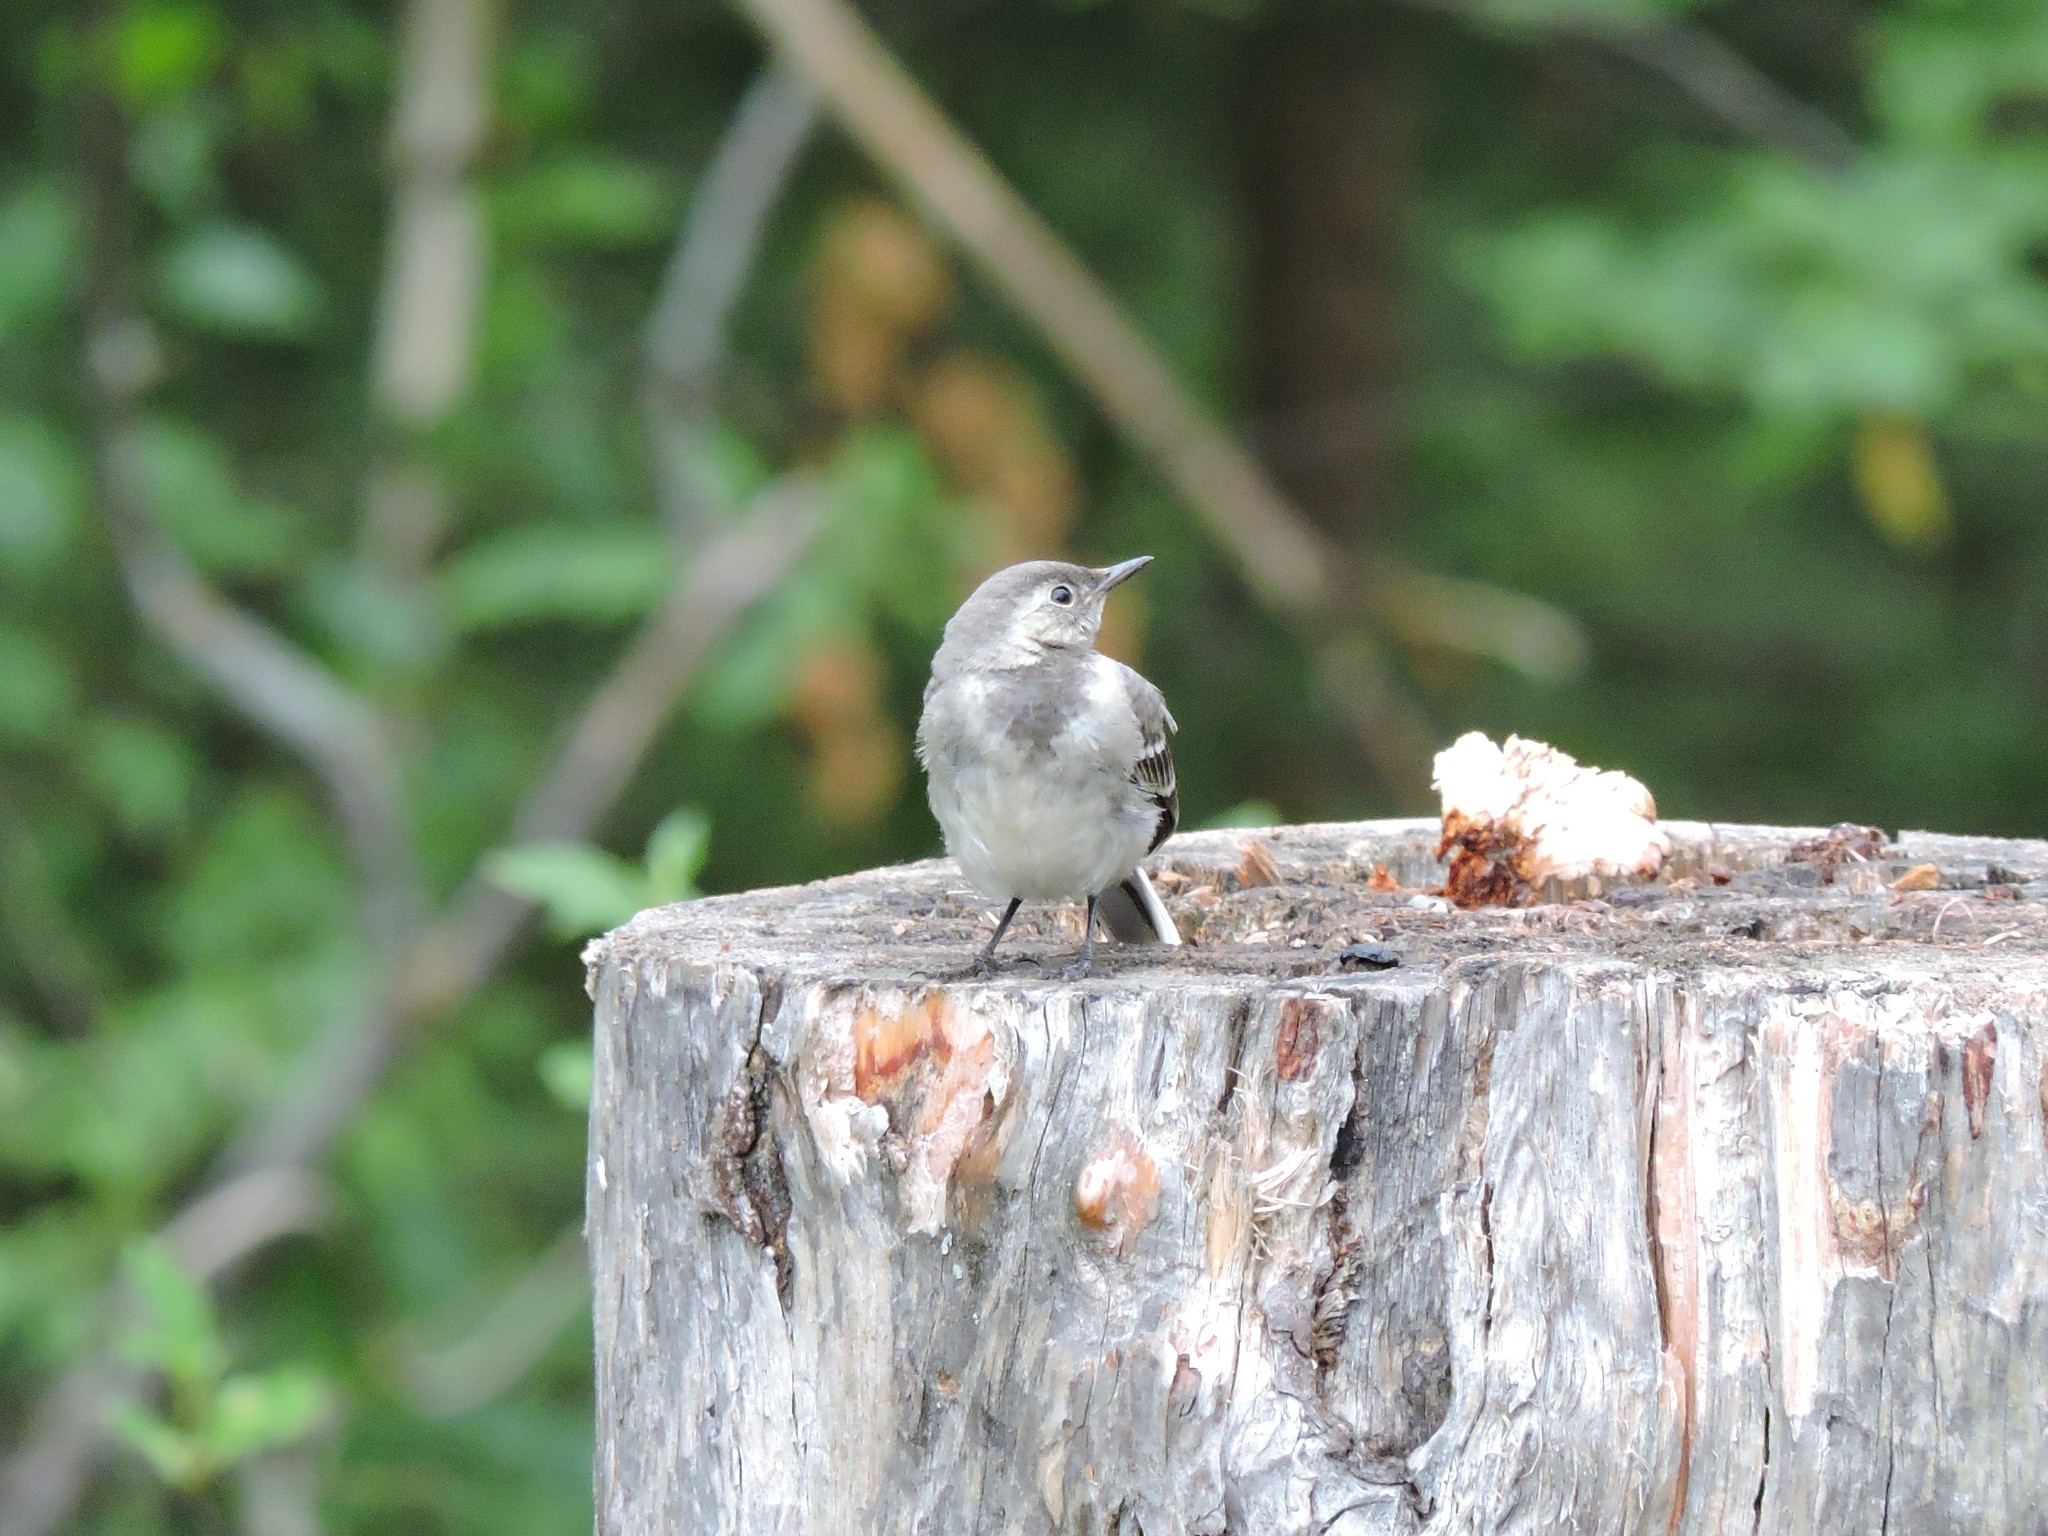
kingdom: Animalia
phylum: Chordata
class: Aves
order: Passeriformes
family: Motacillidae
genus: Motacilla
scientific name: Motacilla alba
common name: White wagtail
